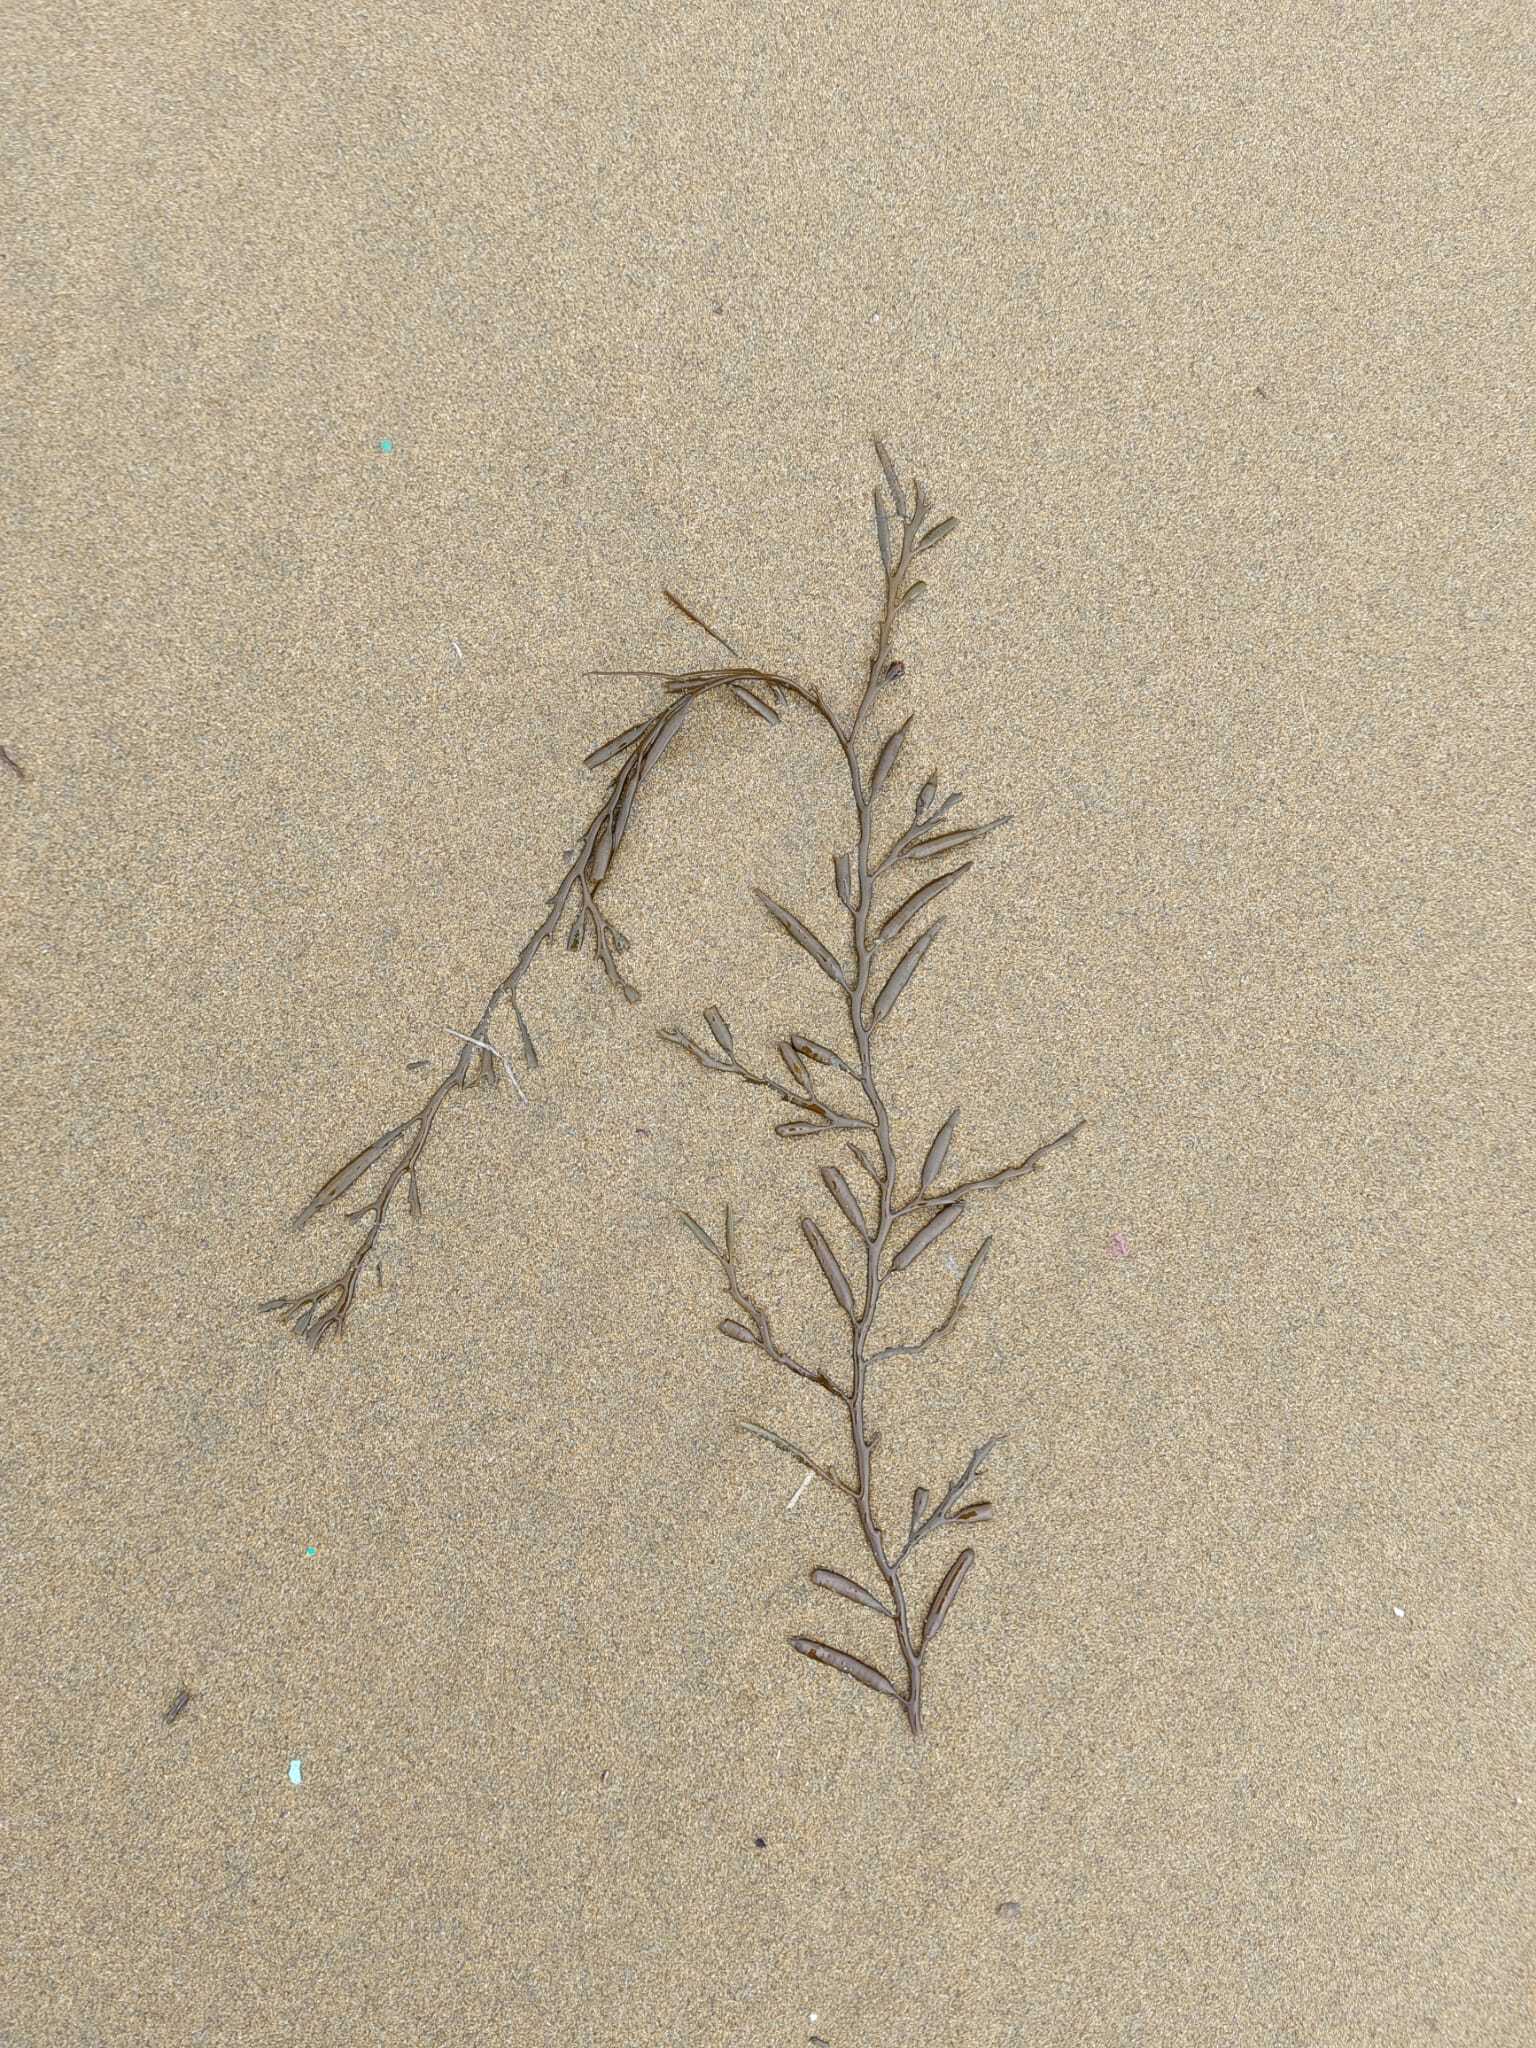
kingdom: Chromista
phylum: Ochrophyta
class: Phaeophyceae
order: Fucales
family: Sargassaceae
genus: Halidrys
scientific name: Halidrys siliquosa
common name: Sea oak
